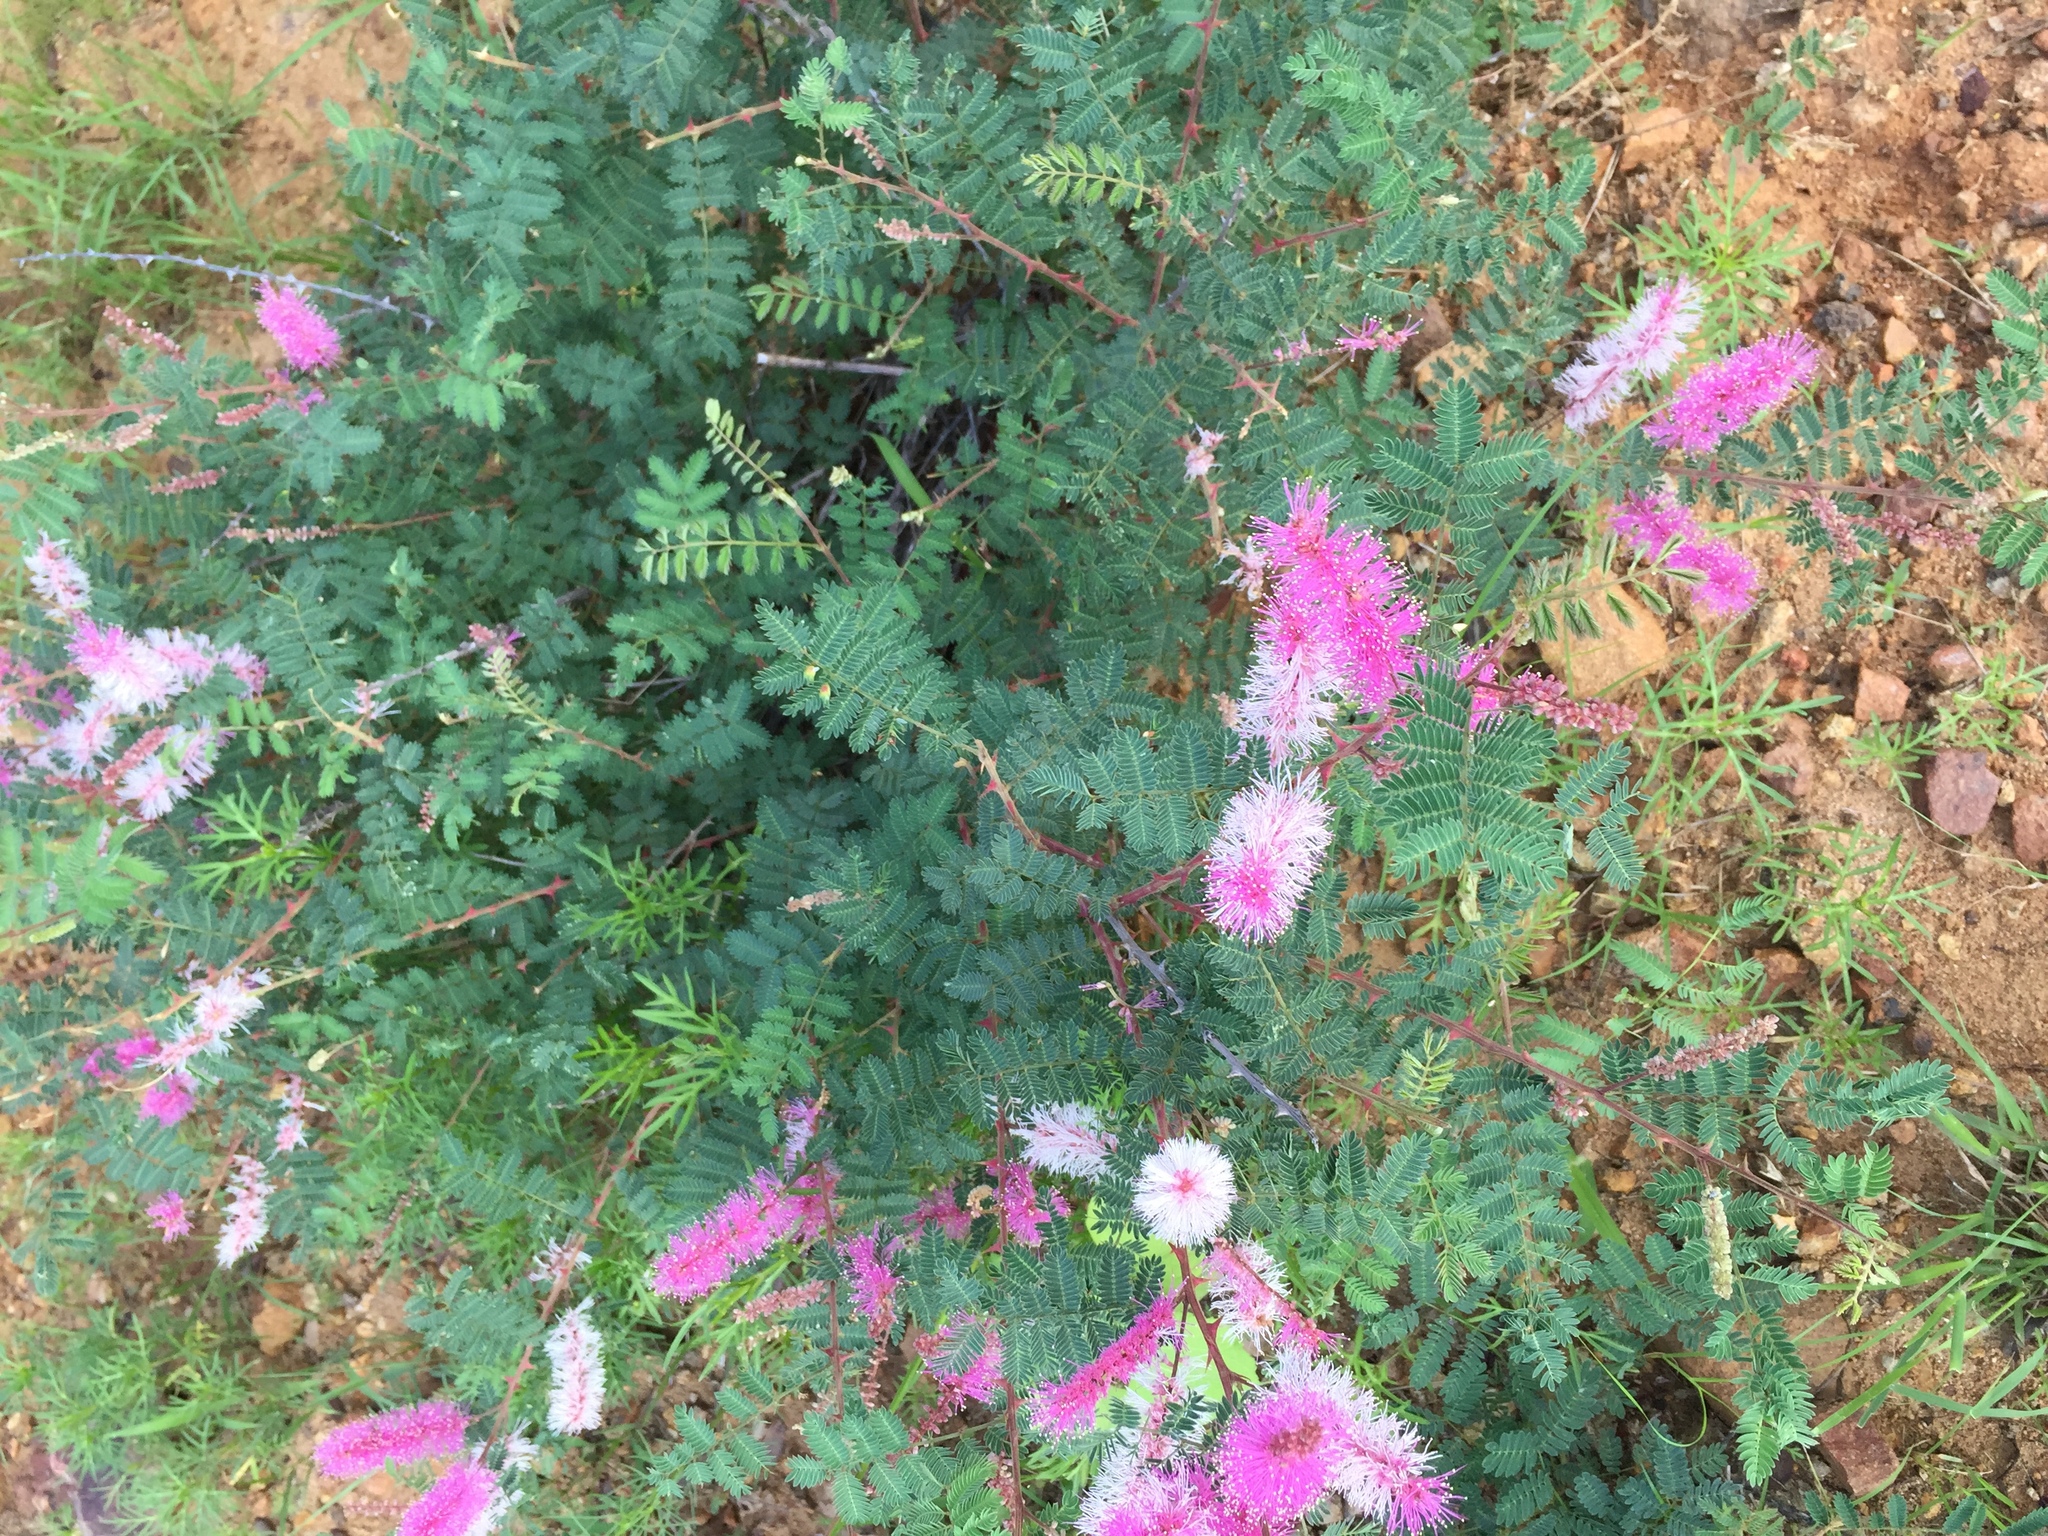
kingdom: Plantae
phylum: Tracheophyta
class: Magnoliopsida
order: Fabales
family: Fabaceae
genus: Mimosa
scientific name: Mimosa dysocarpa
